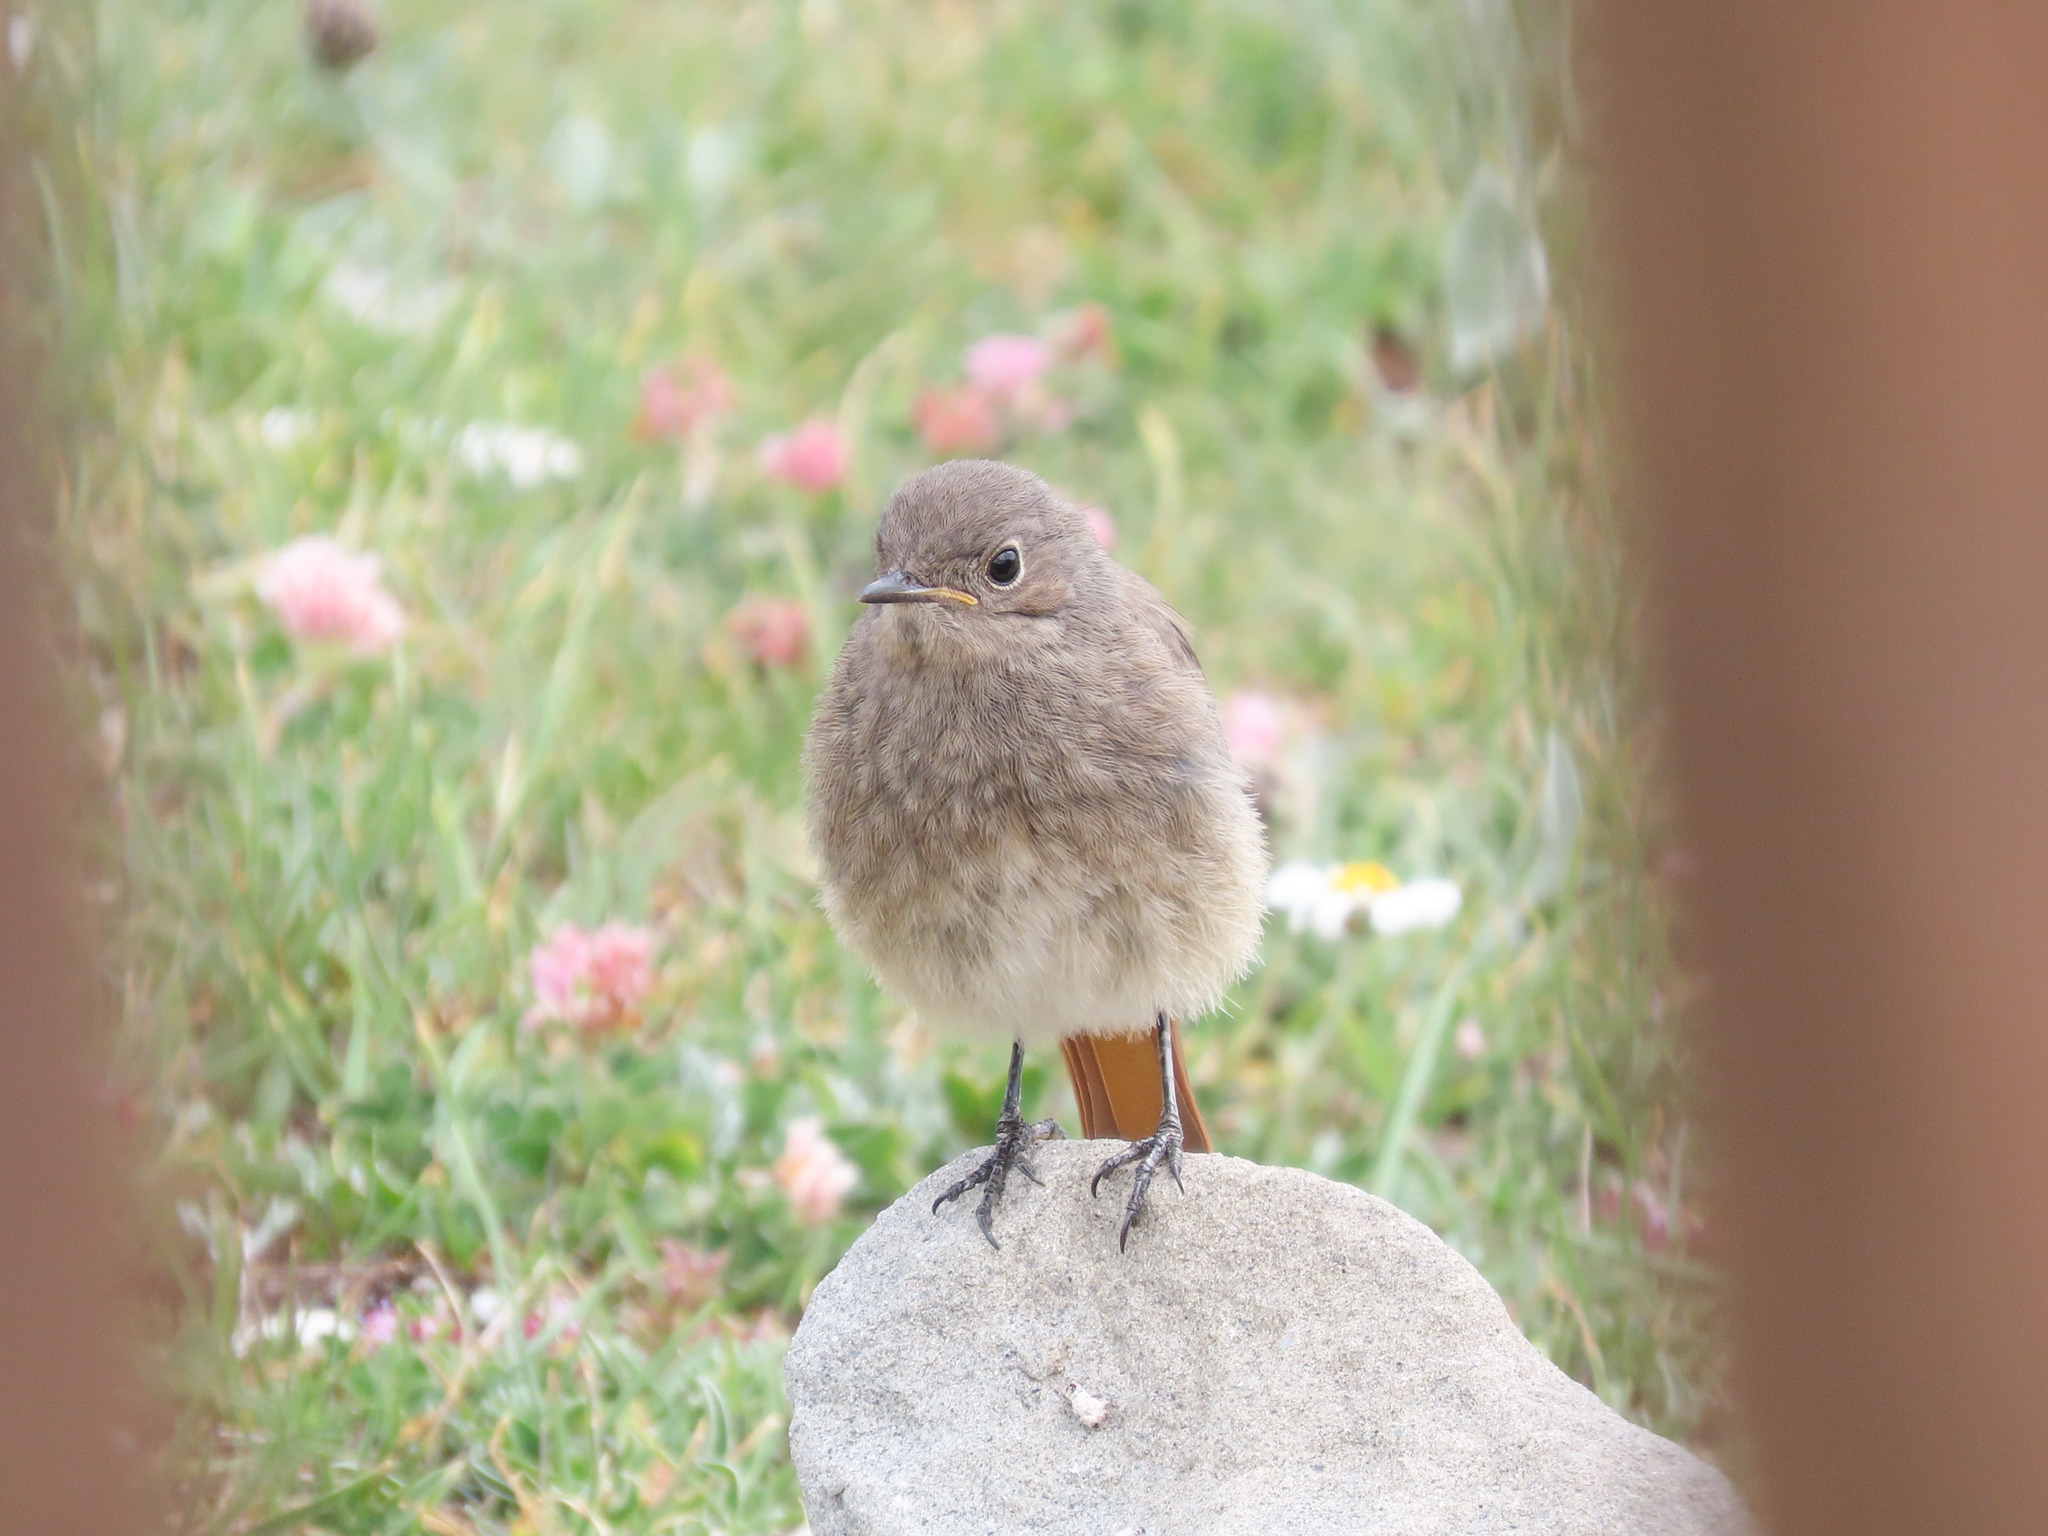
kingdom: Animalia
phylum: Chordata
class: Aves
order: Passeriformes
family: Muscicapidae
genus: Phoenicurus
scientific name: Phoenicurus ochruros
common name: Black redstart
